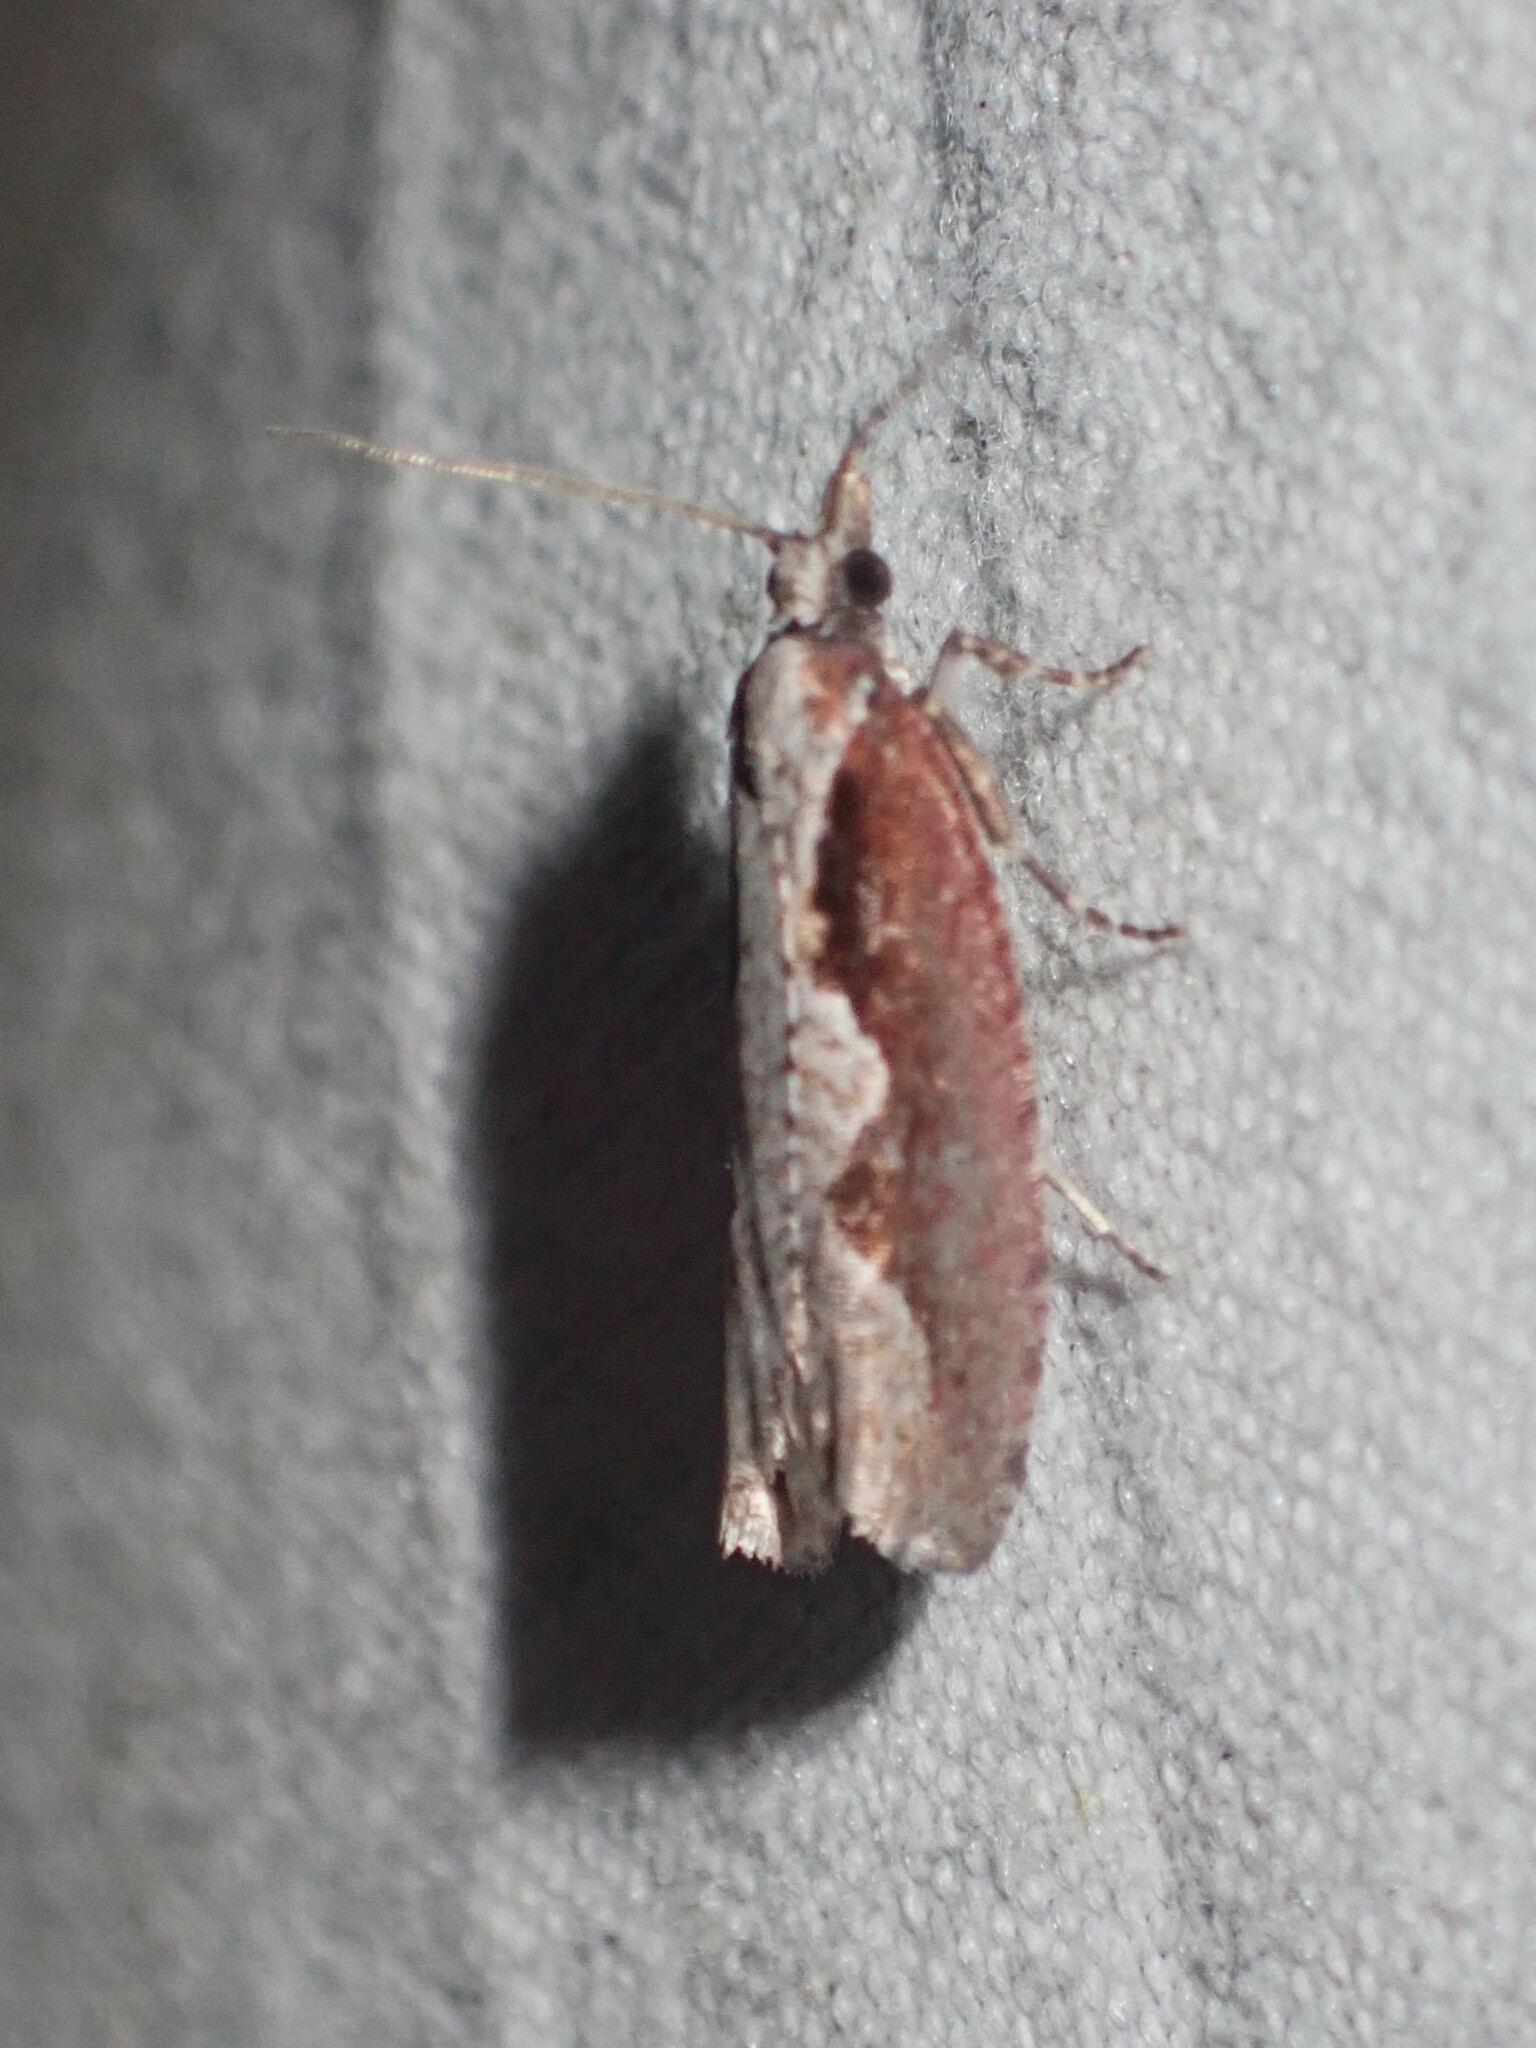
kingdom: Animalia
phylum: Arthropoda
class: Insecta
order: Lepidoptera
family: Tortricidae
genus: Epinotia
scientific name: Epinotia lindana
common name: Diamondback epinotia moth
